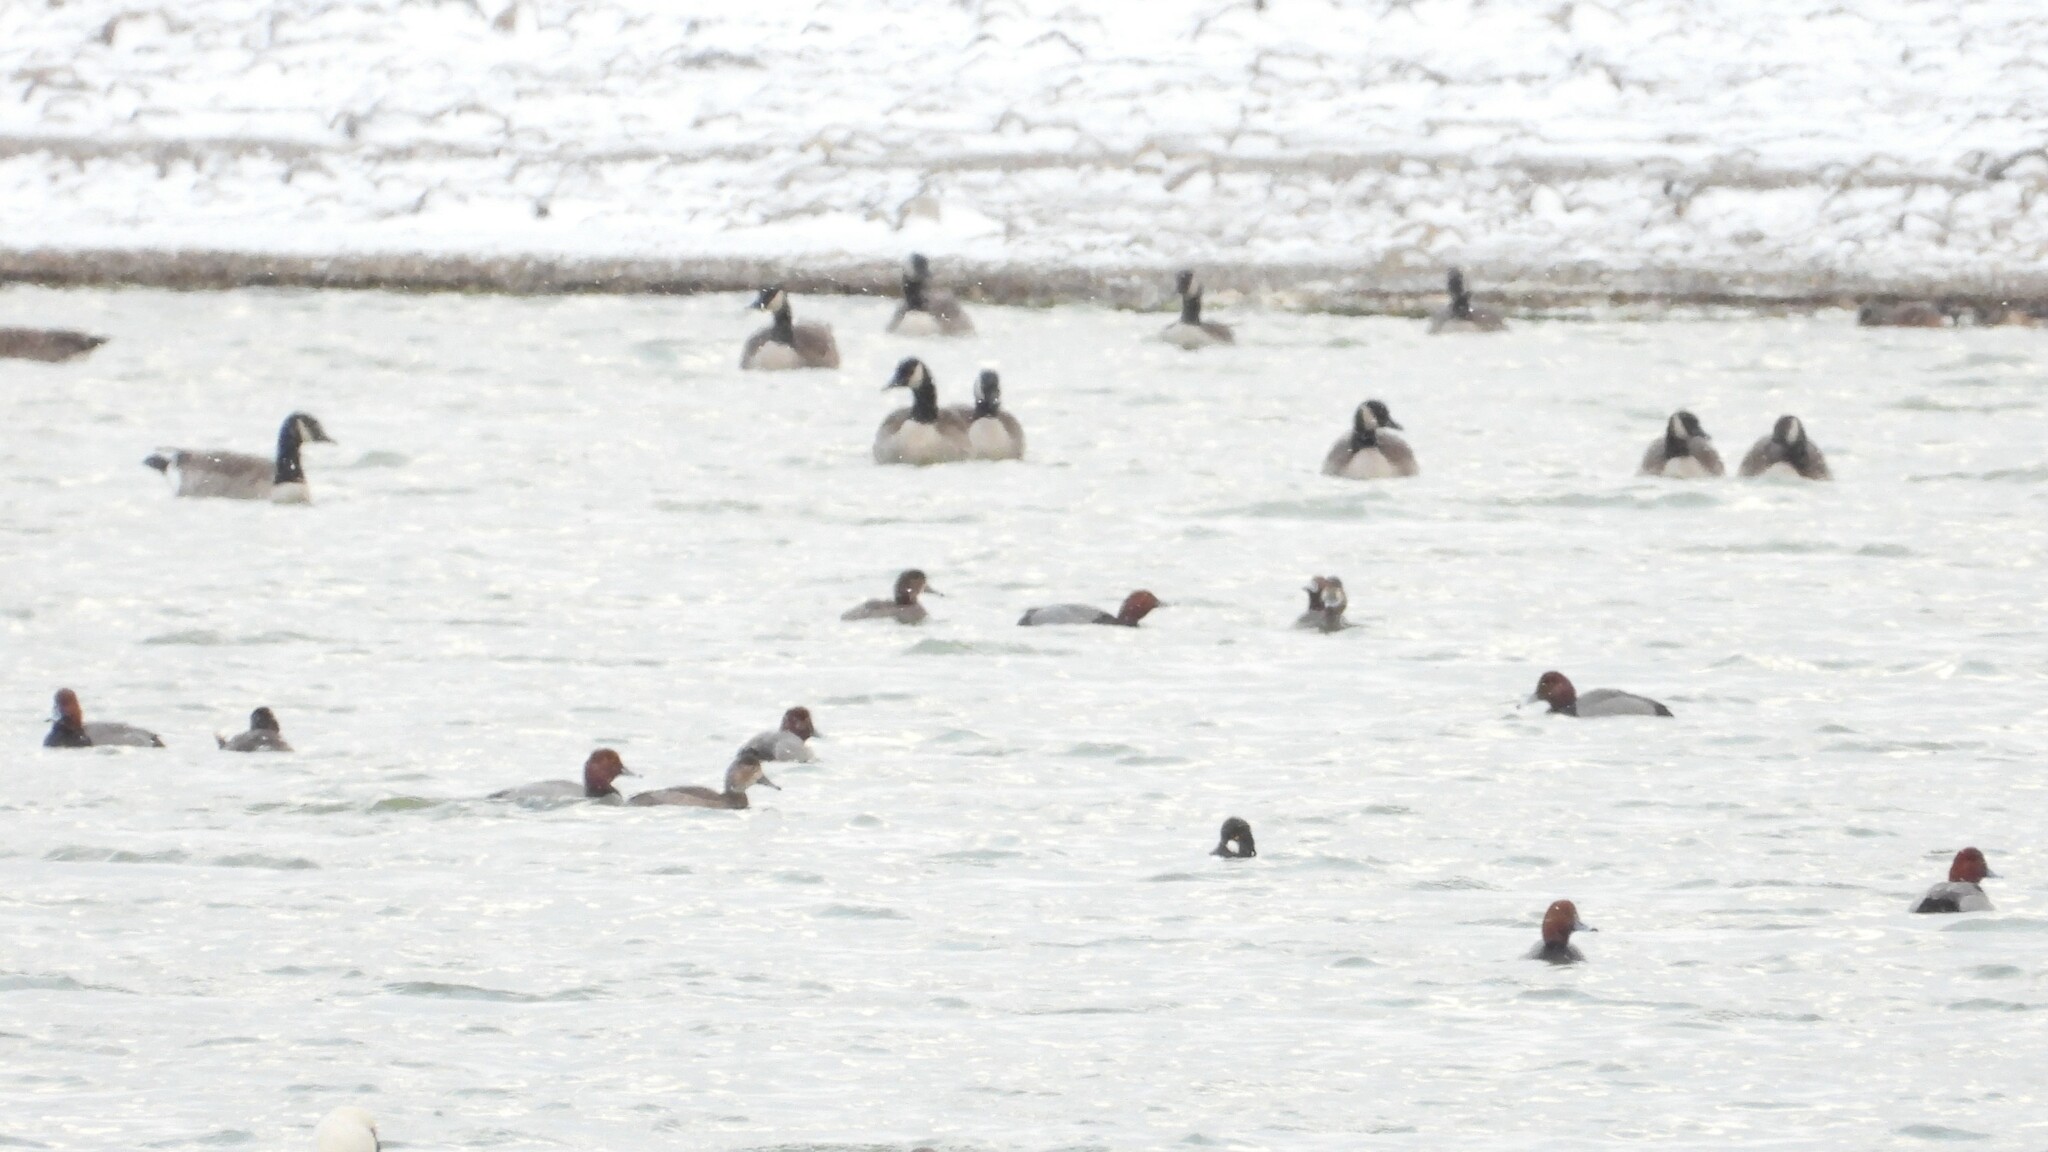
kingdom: Animalia
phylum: Chordata
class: Aves
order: Anseriformes
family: Anatidae
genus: Aythya
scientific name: Aythya americana
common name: Redhead
